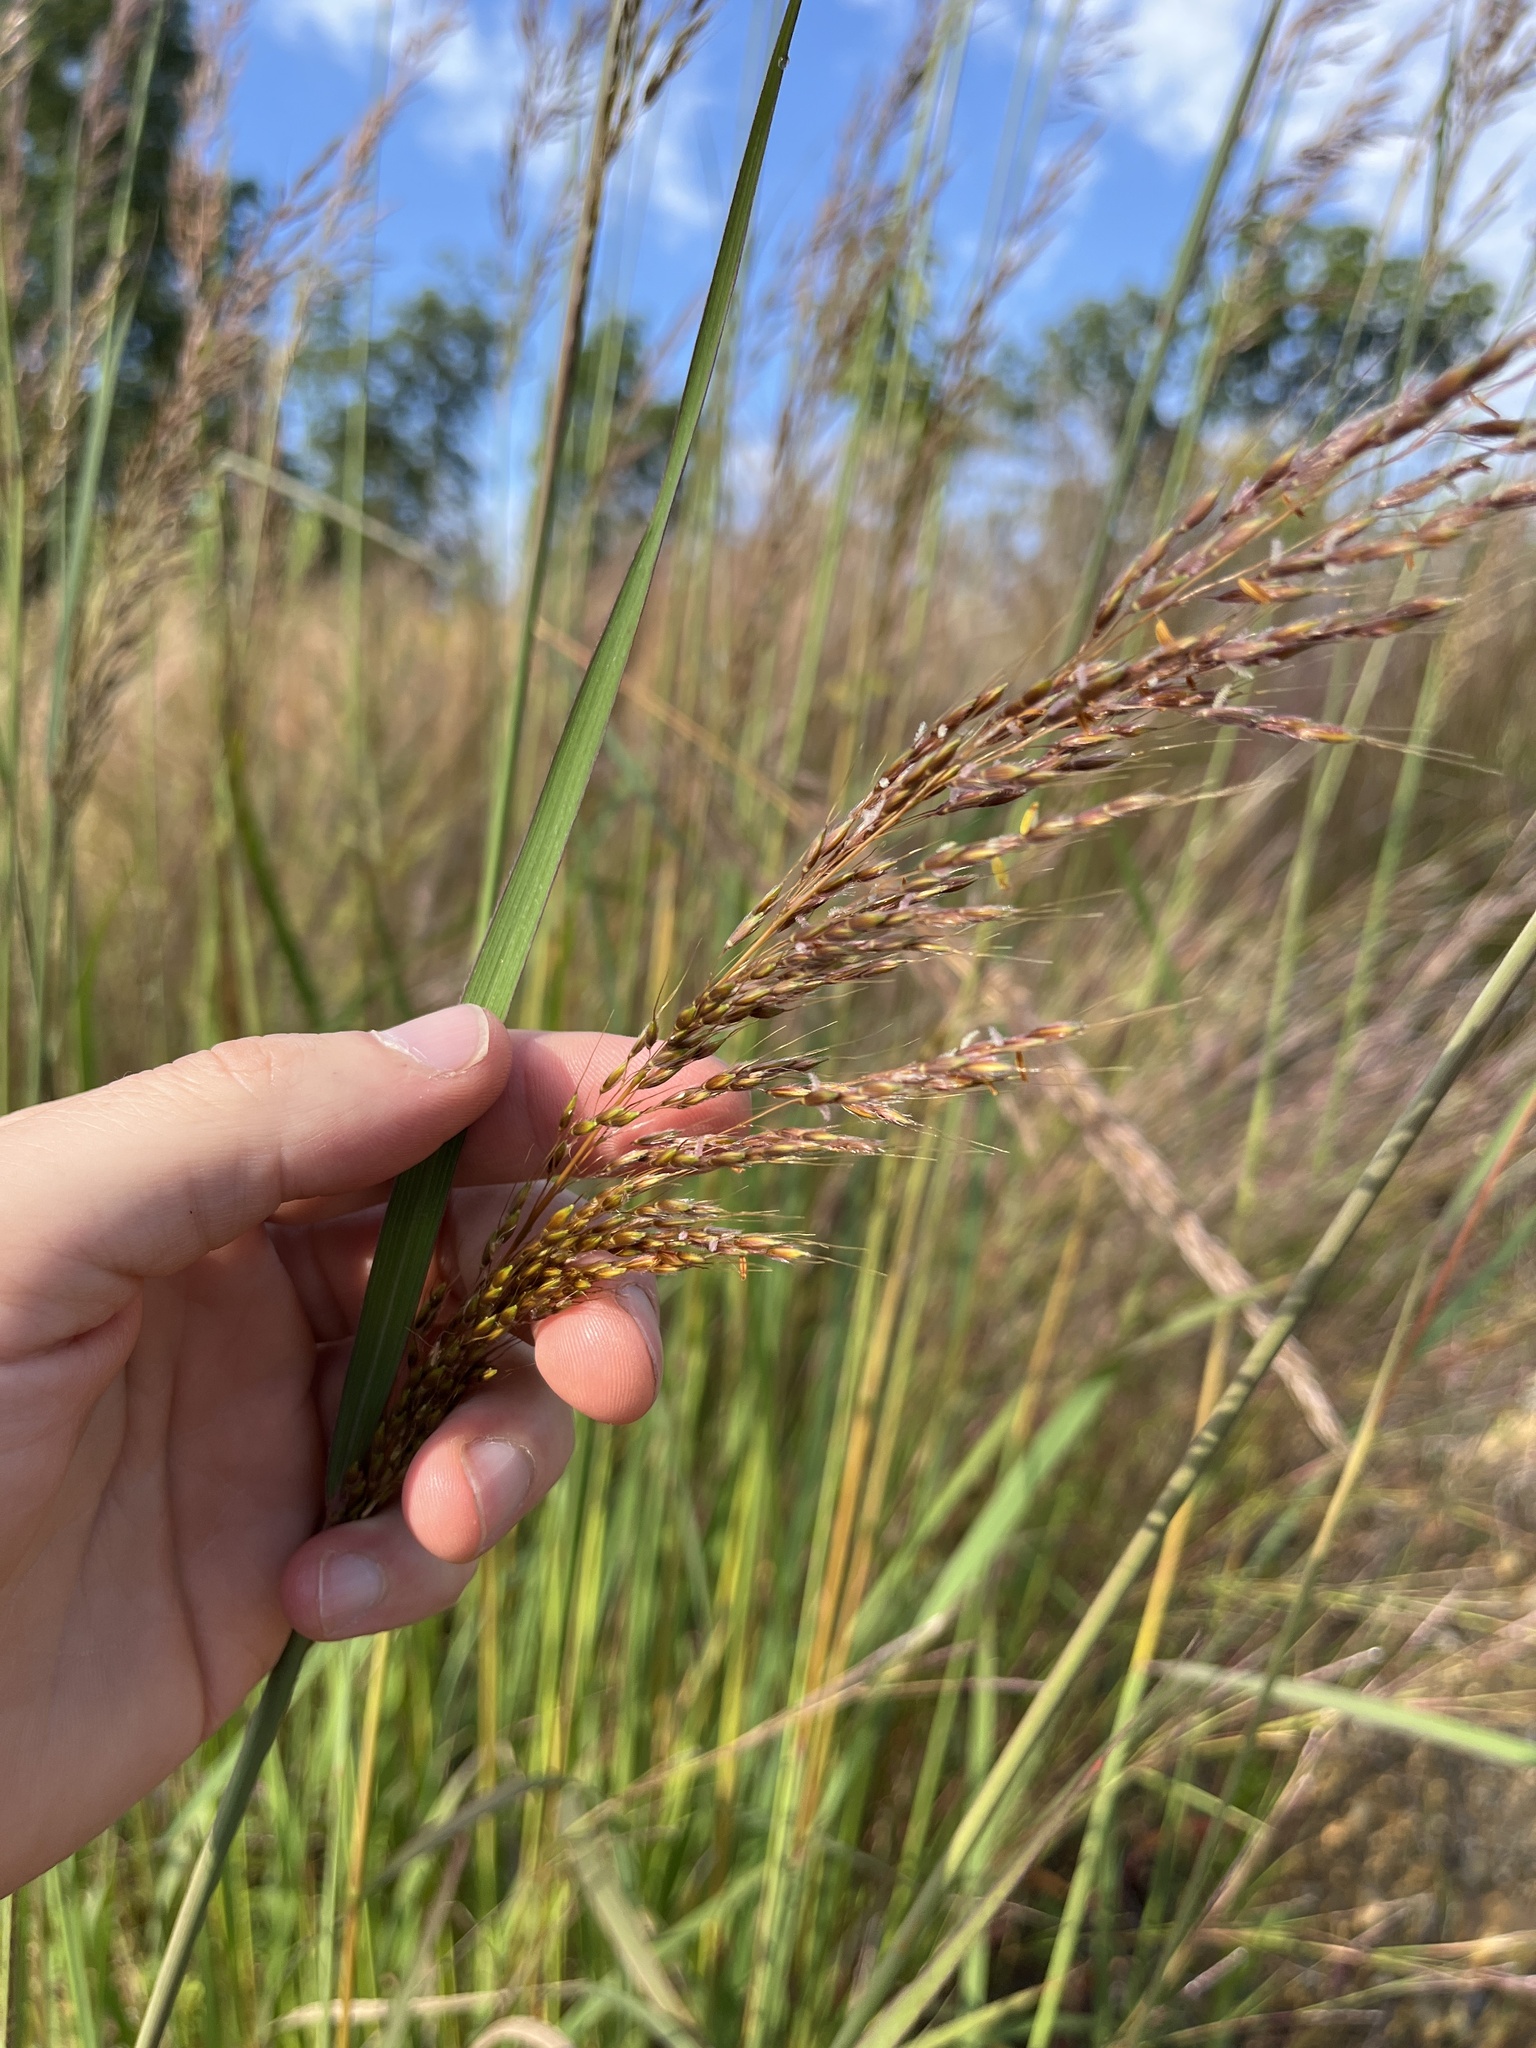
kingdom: Plantae
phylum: Tracheophyta
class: Liliopsida
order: Poales
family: Poaceae
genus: Sorghastrum
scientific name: Sorghastrum nutans
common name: Indian grass
